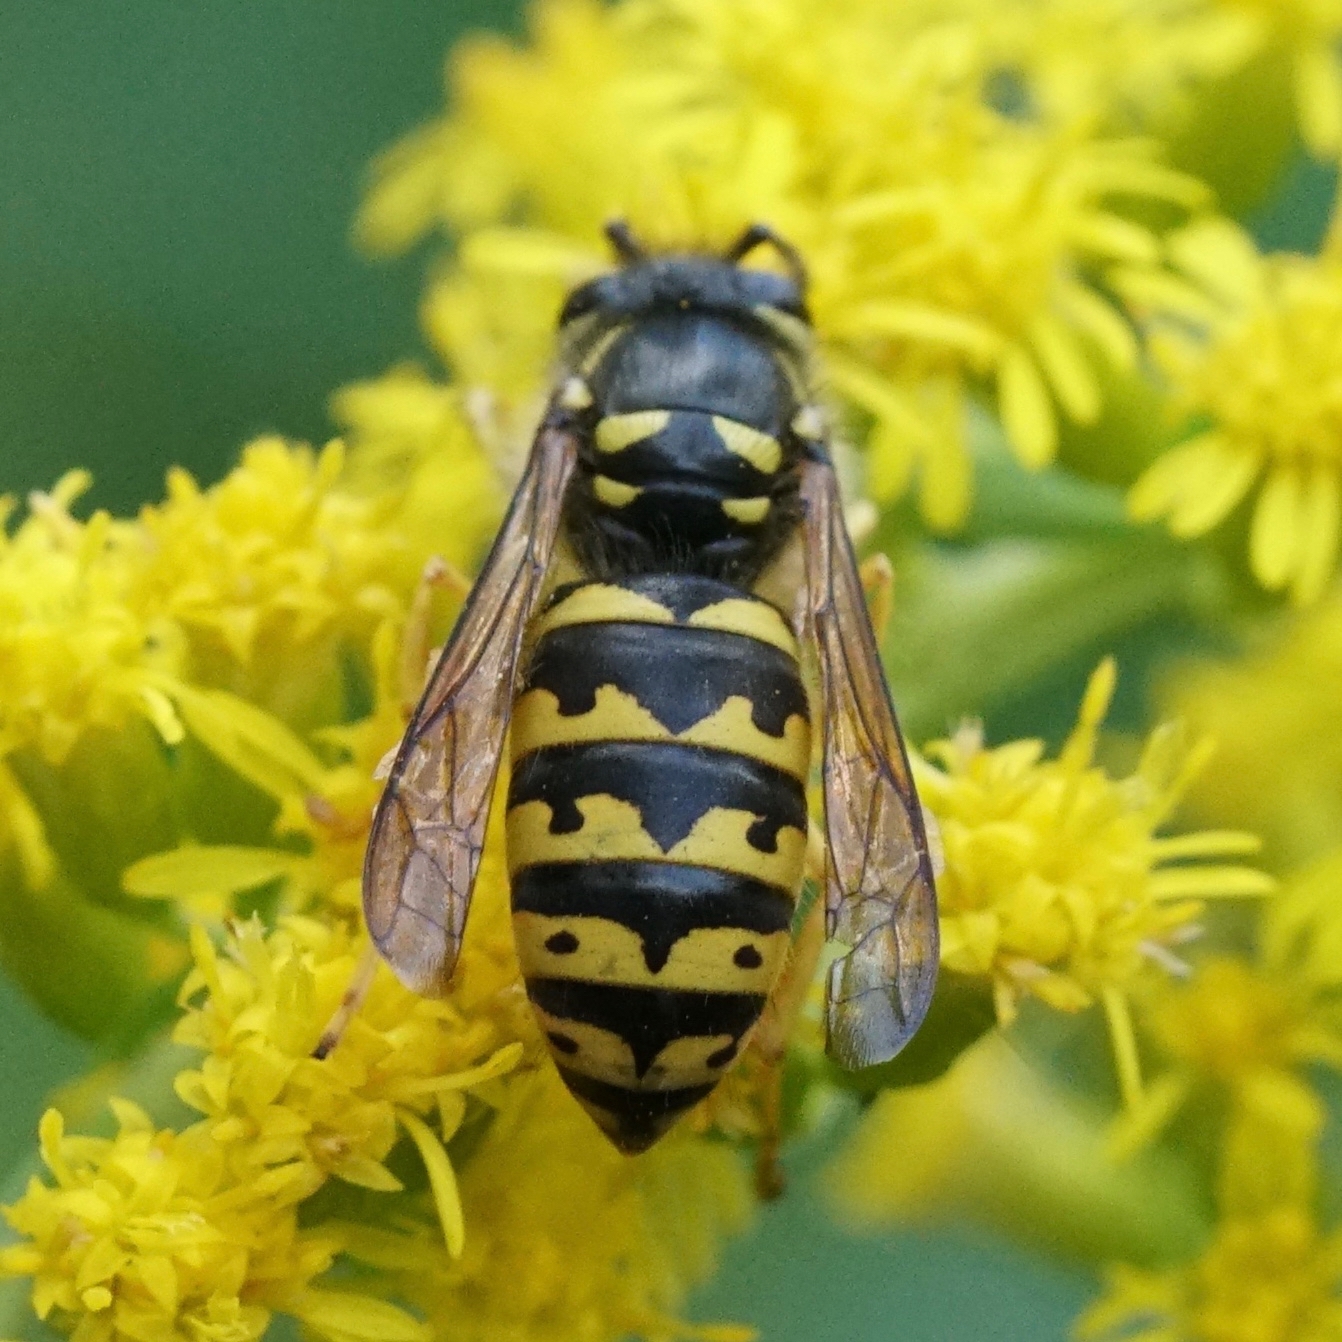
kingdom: Animalia
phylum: Arthropoda
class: Insecta
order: Hymenoptera
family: Vespidae
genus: Dolichovespula
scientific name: Dolichovespula arenaria
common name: Aerial yellowjacket
